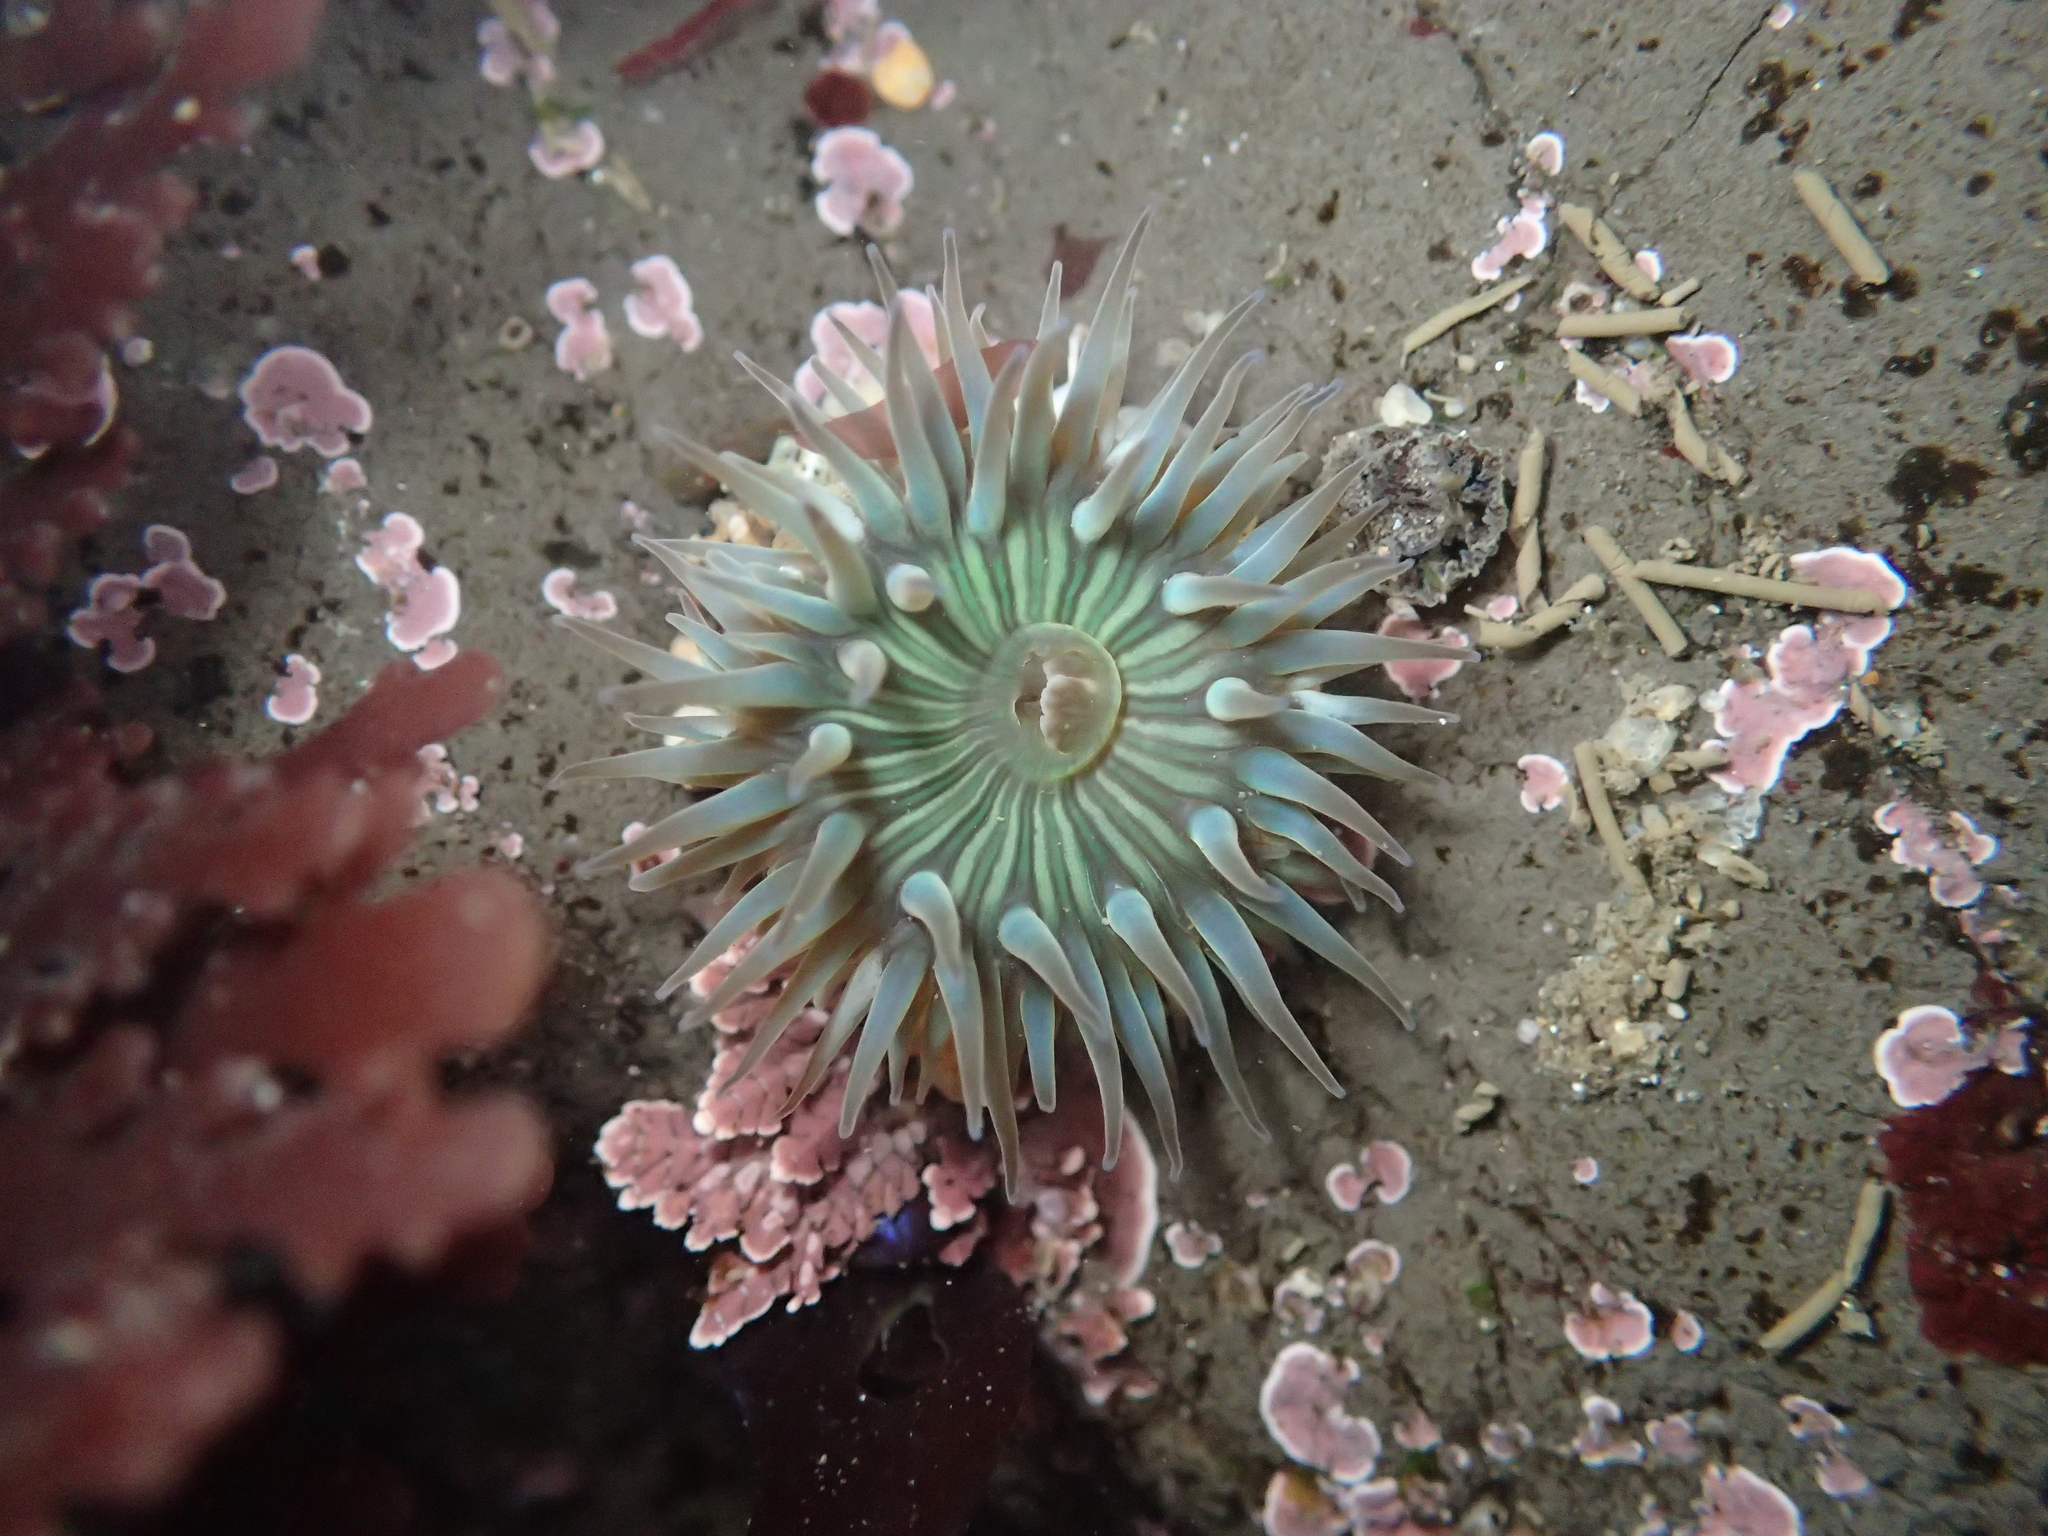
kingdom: Animalia
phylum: Cnidaria
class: Anthozoa
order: Actiniaria
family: Actiniidae
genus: Anthopleura
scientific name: Anthopleura sola
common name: Sun anemone
